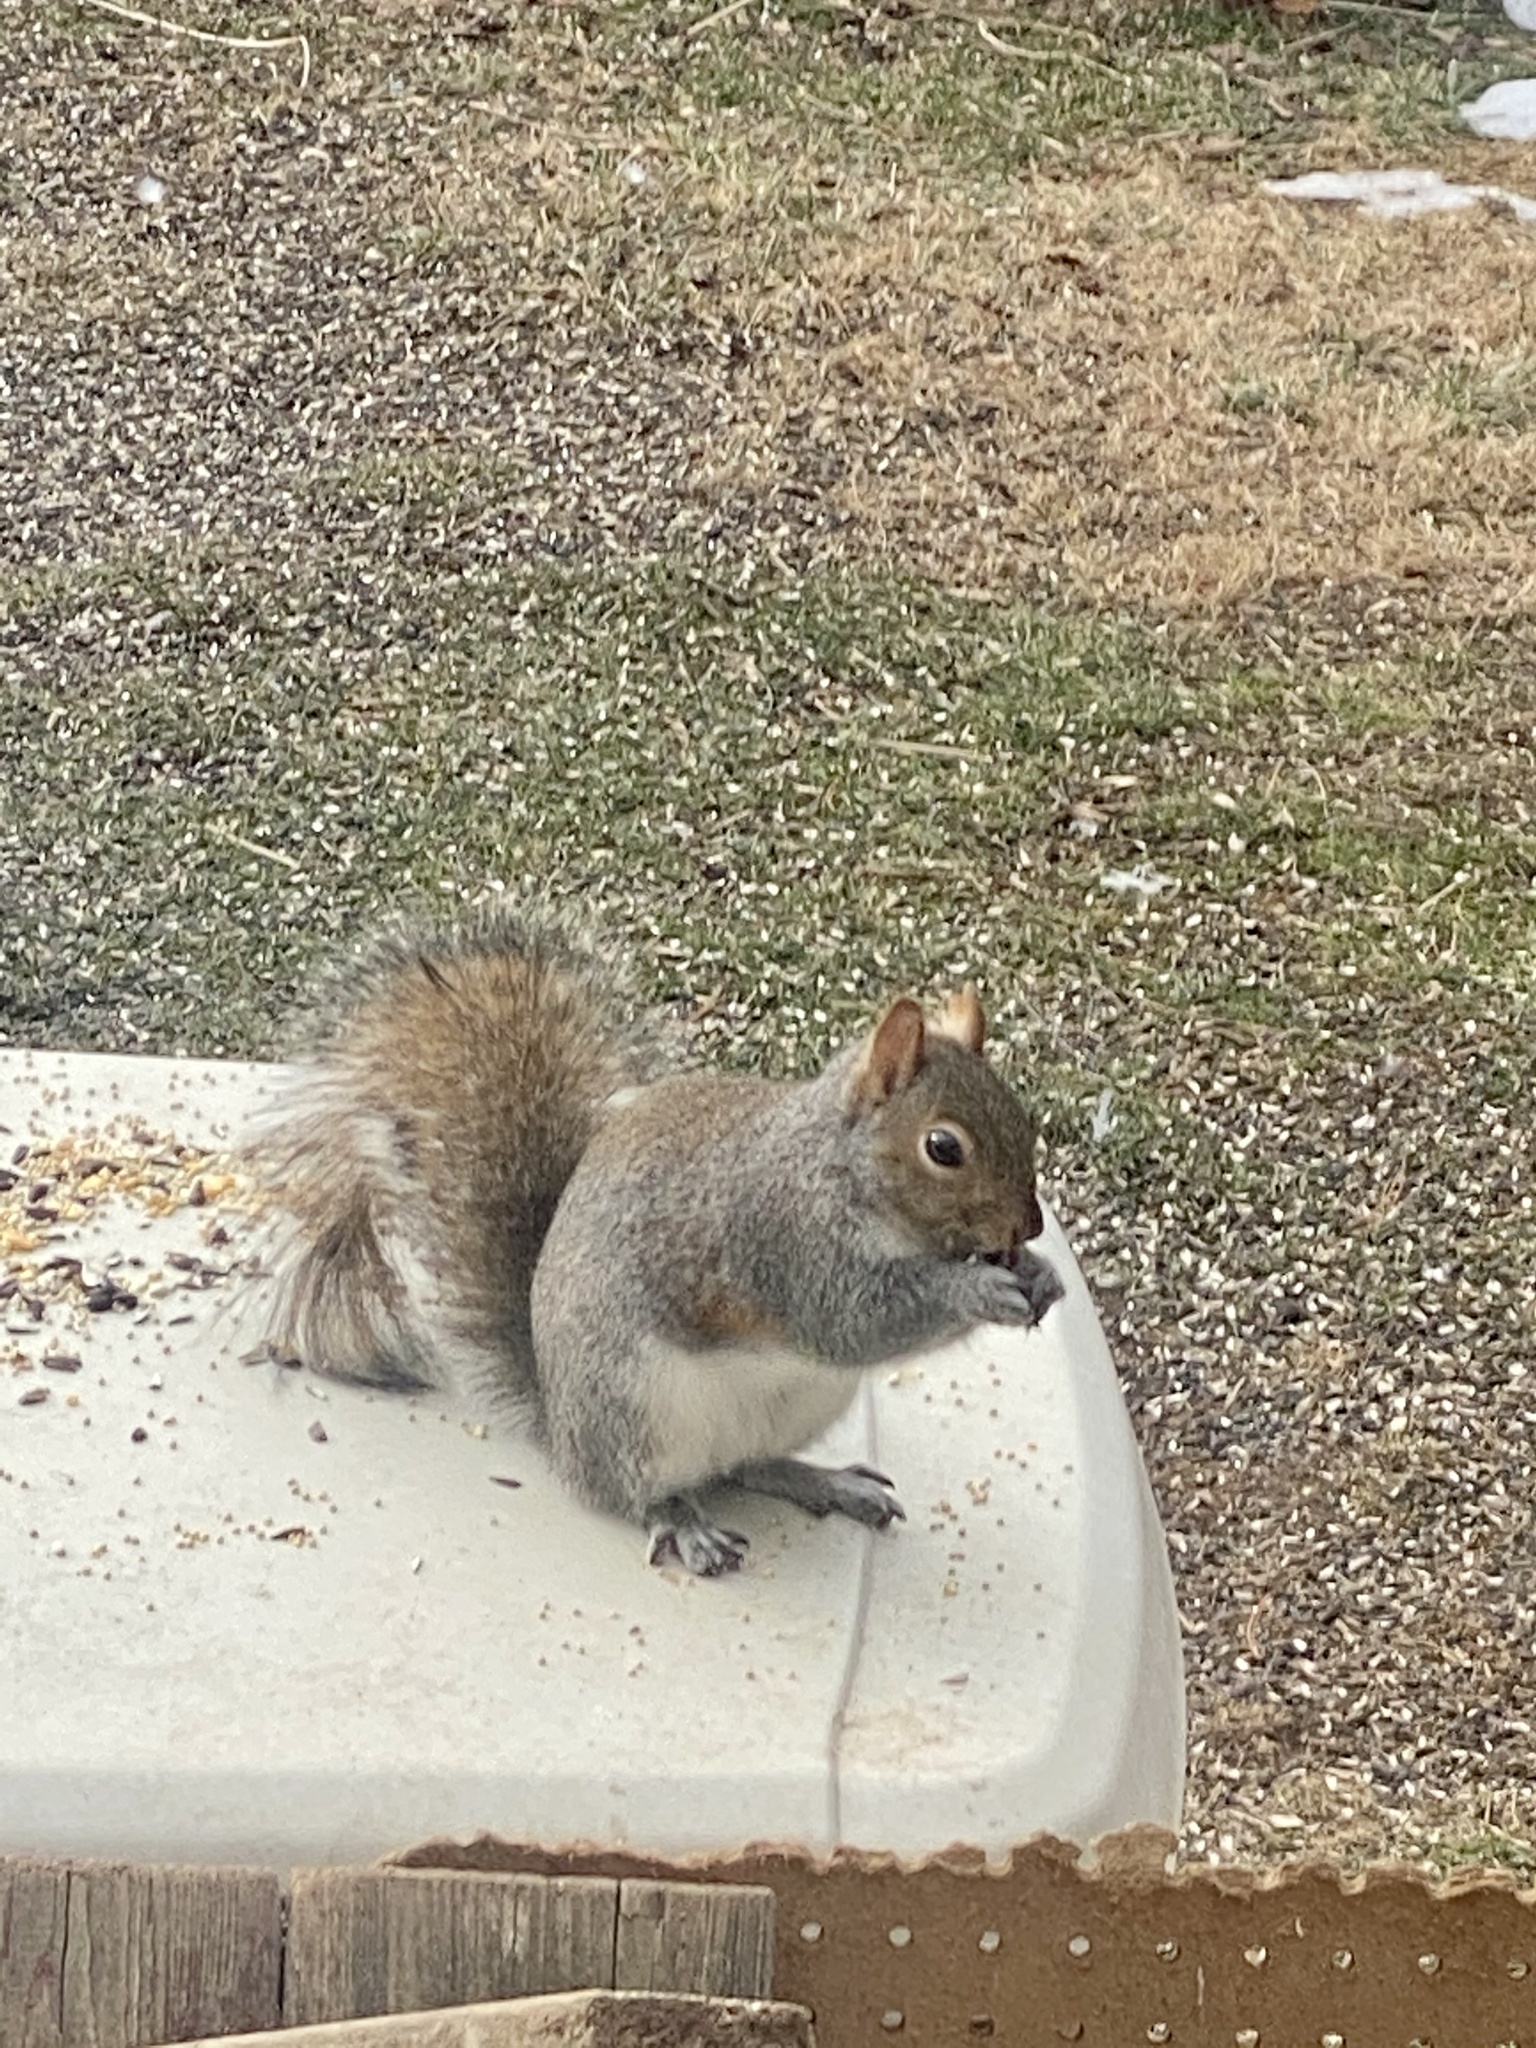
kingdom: Animalia
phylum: Chordata
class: Mammalia
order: Rodentia
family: Sciuridae
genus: Sciurus
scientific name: Sciurus carolinensis
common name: Eastern gray squirrel
